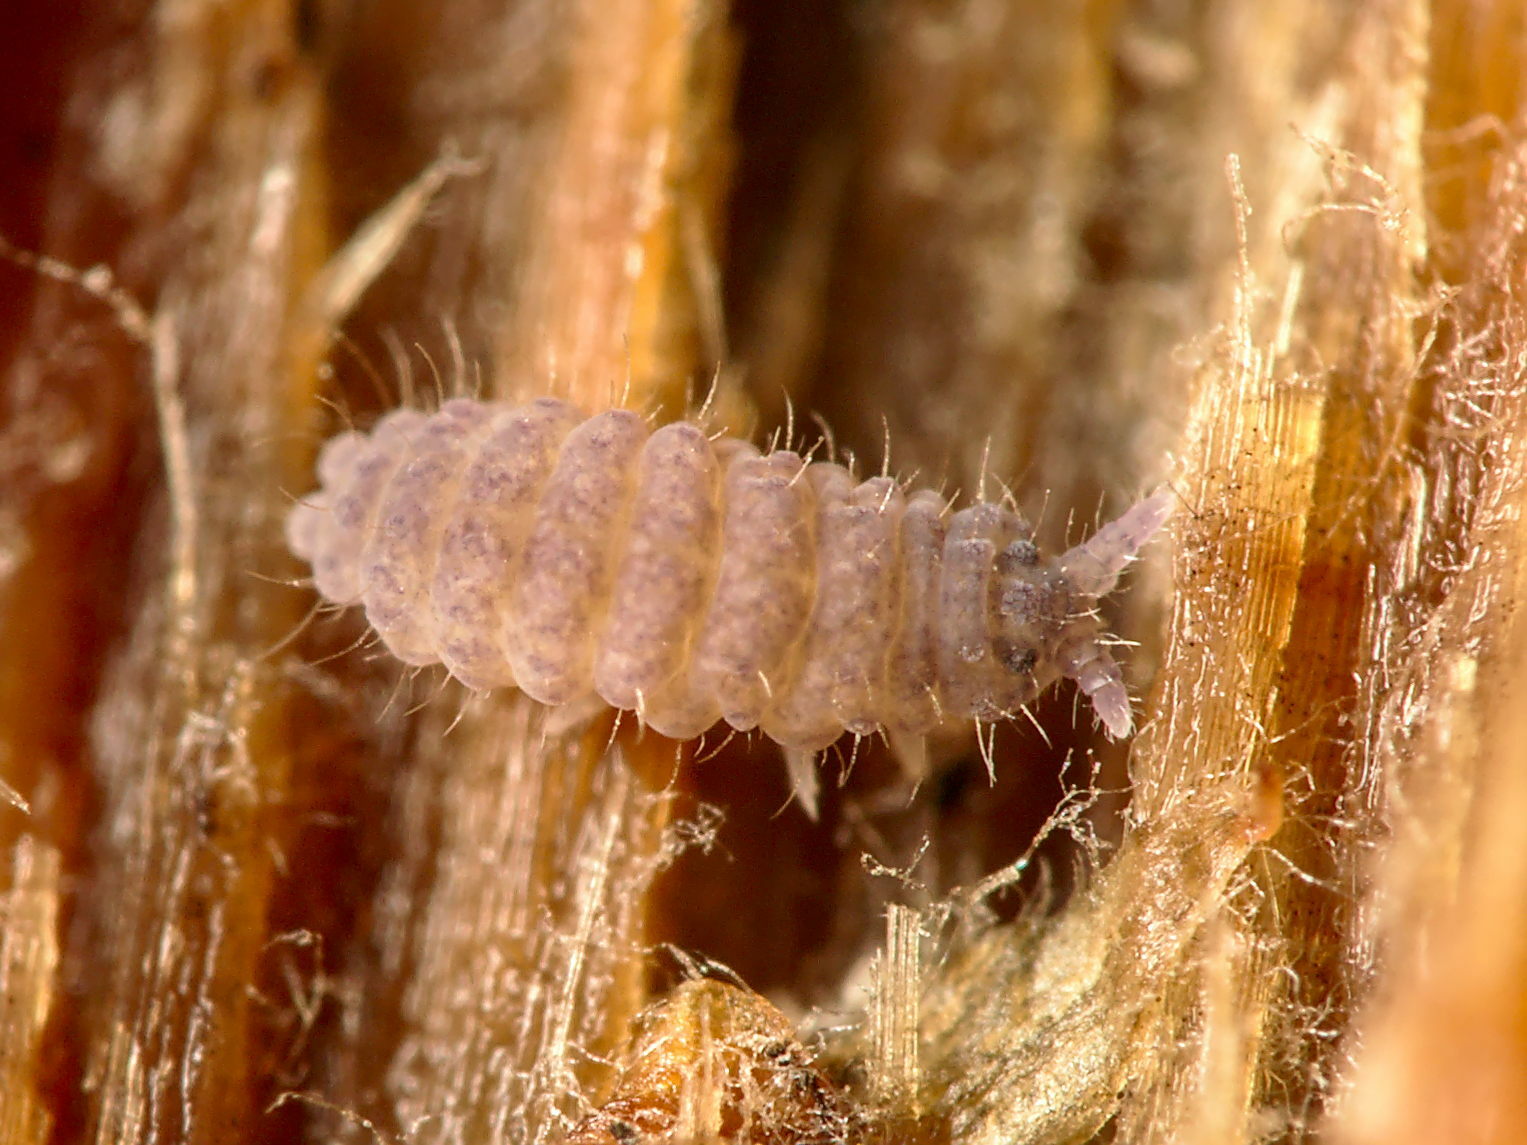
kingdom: Animalia
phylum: Arthropoda
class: Collembola
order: Poduromorpha
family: Neanuridae
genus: Neanura
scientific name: Neanura muscorum
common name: Springtail
